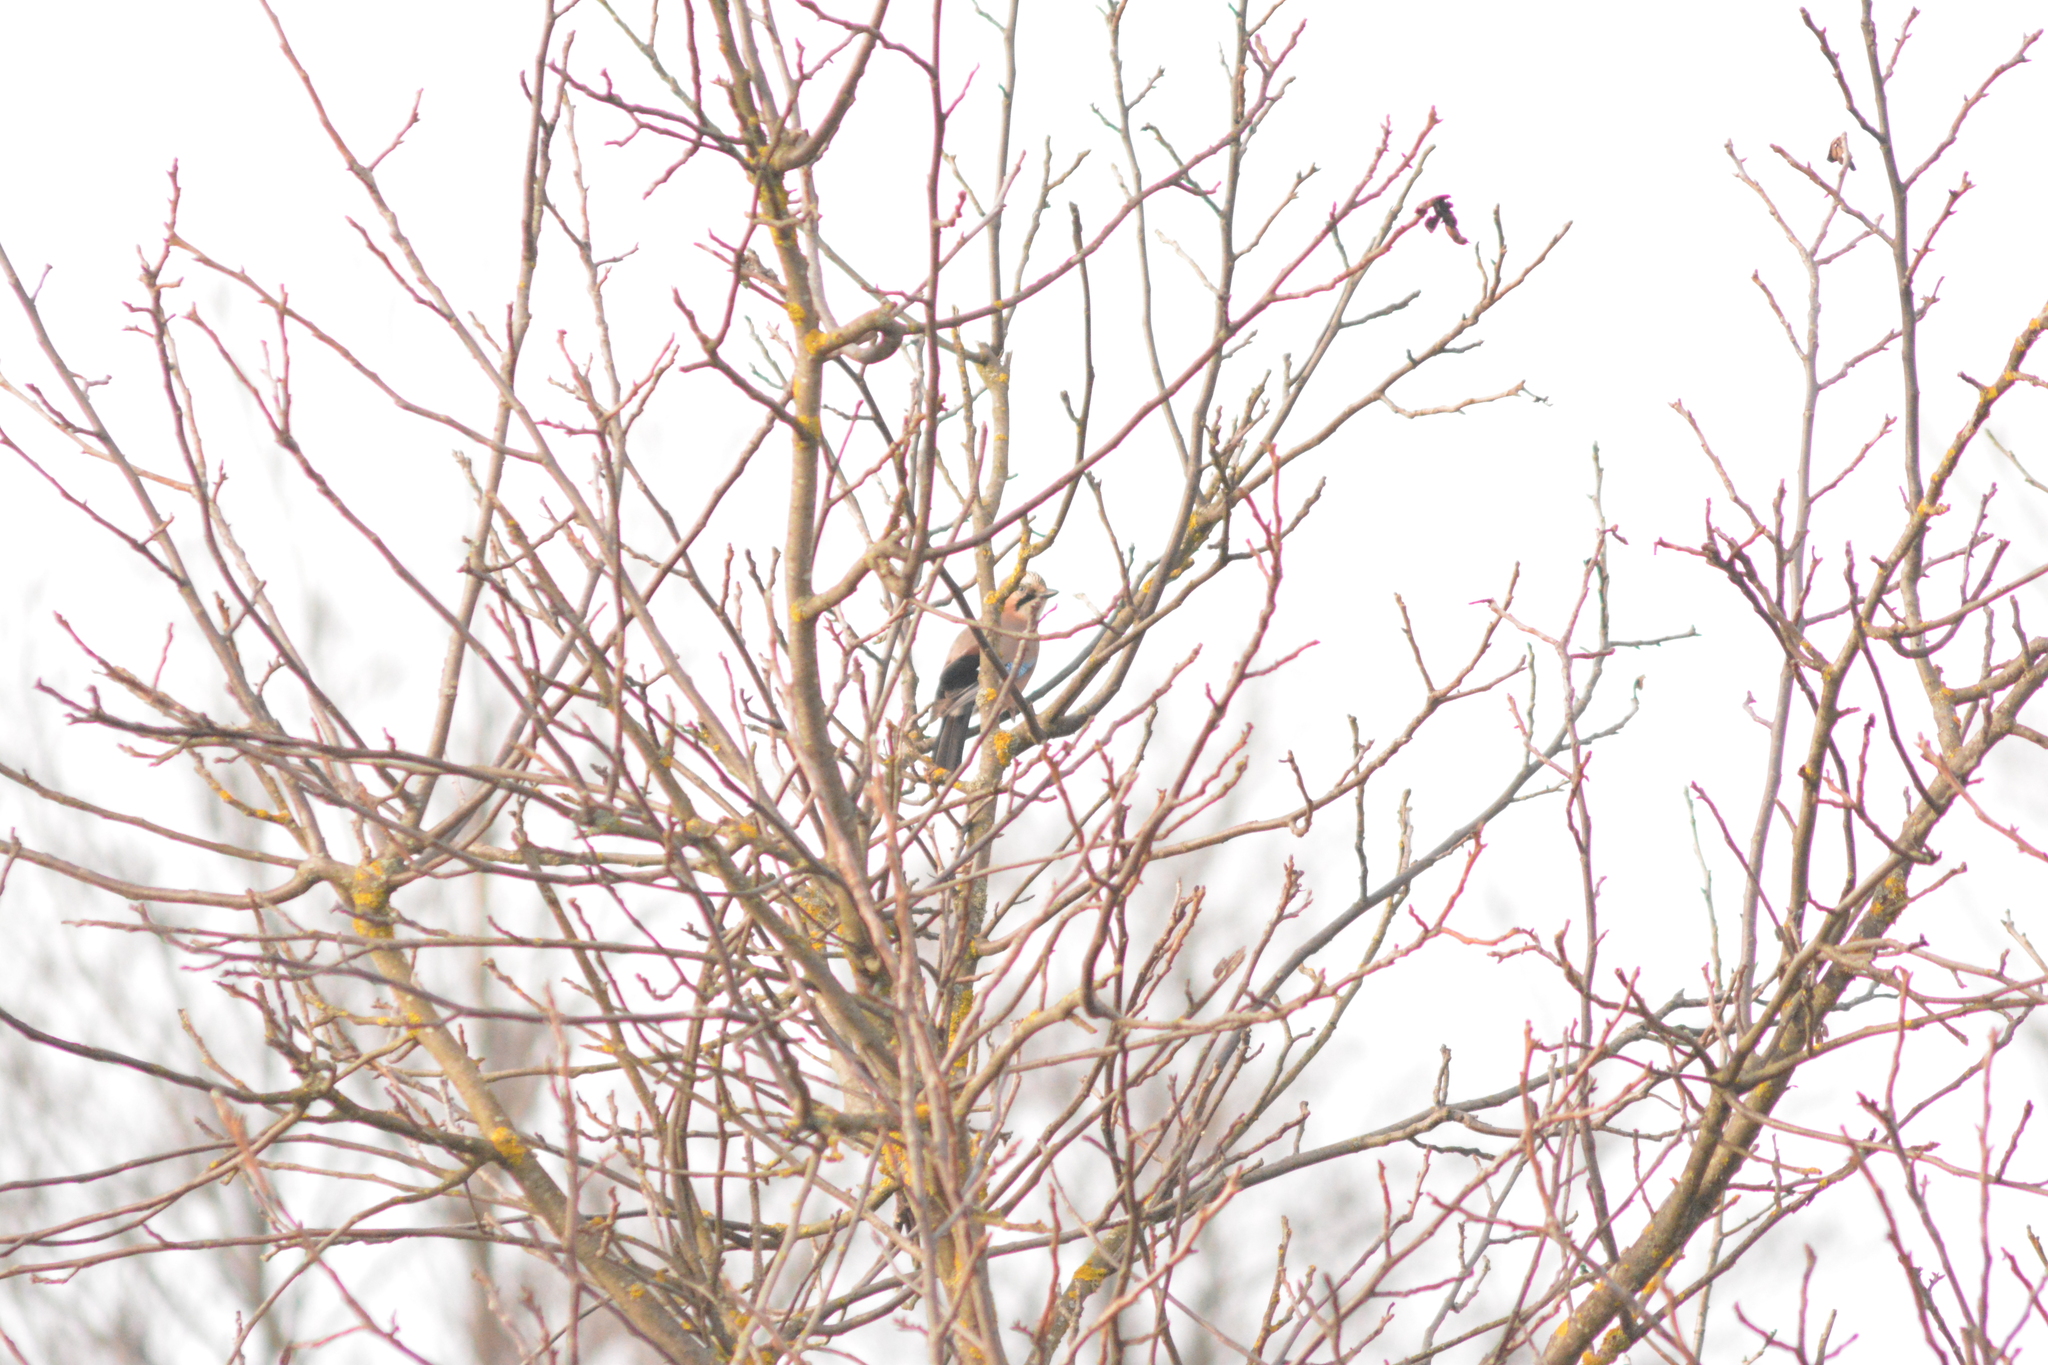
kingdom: Animalia
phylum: Chordata
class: Aves
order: Passeriformes
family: Corvidae
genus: Garrulus
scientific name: Garrulus glandarius
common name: Eurasian jay
